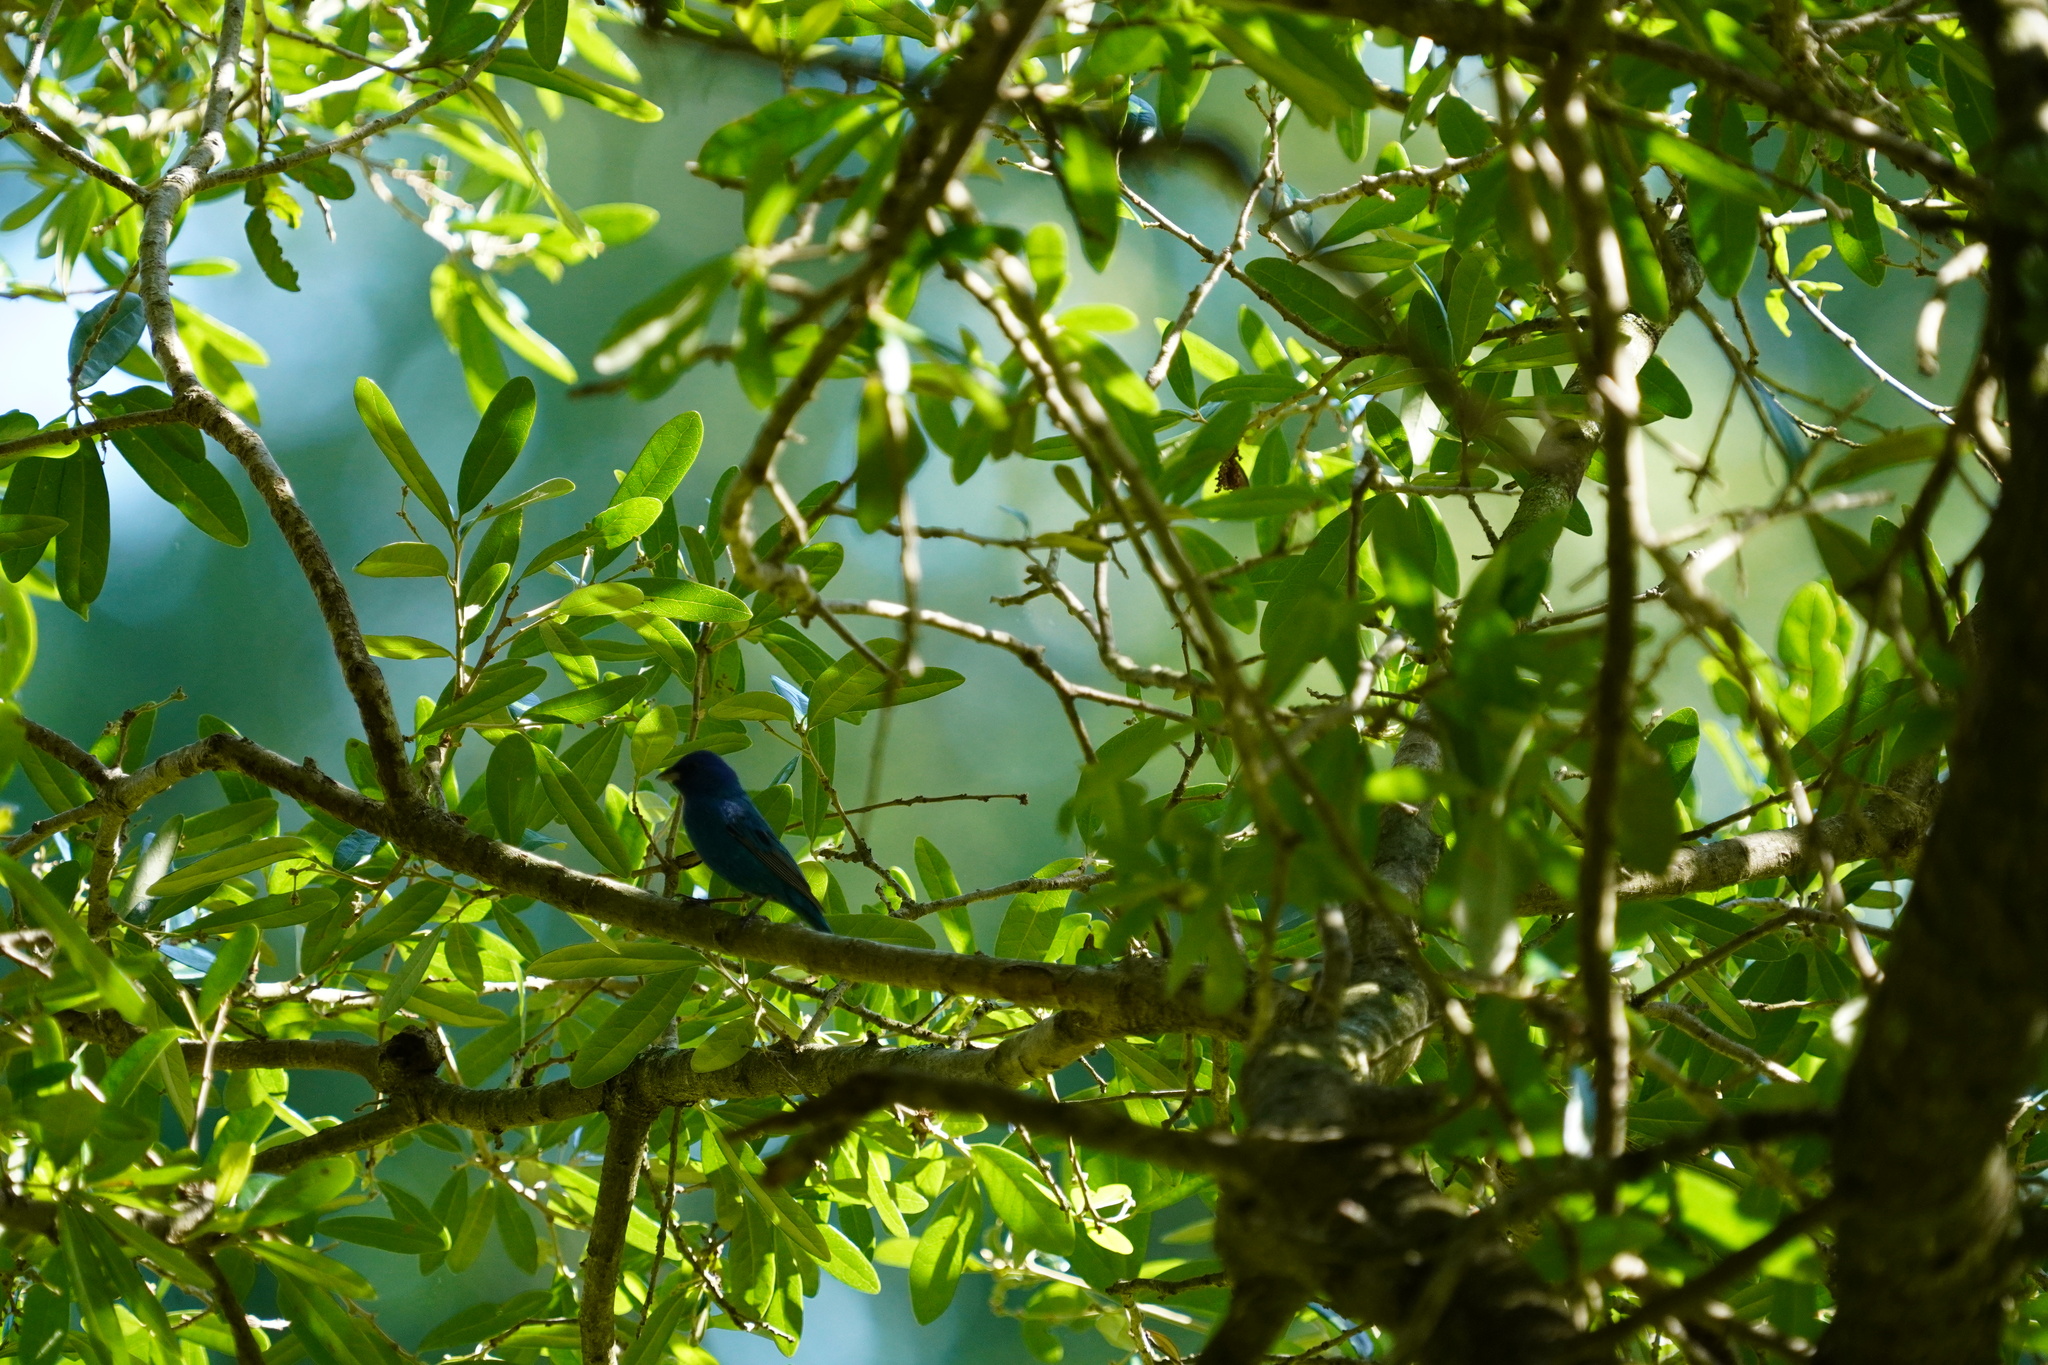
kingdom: Animalia
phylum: Chordata
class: Aves
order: Passeriformes
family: Cardinalidae
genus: Passerina
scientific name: Passerina cyanea
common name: Indigo bunting
